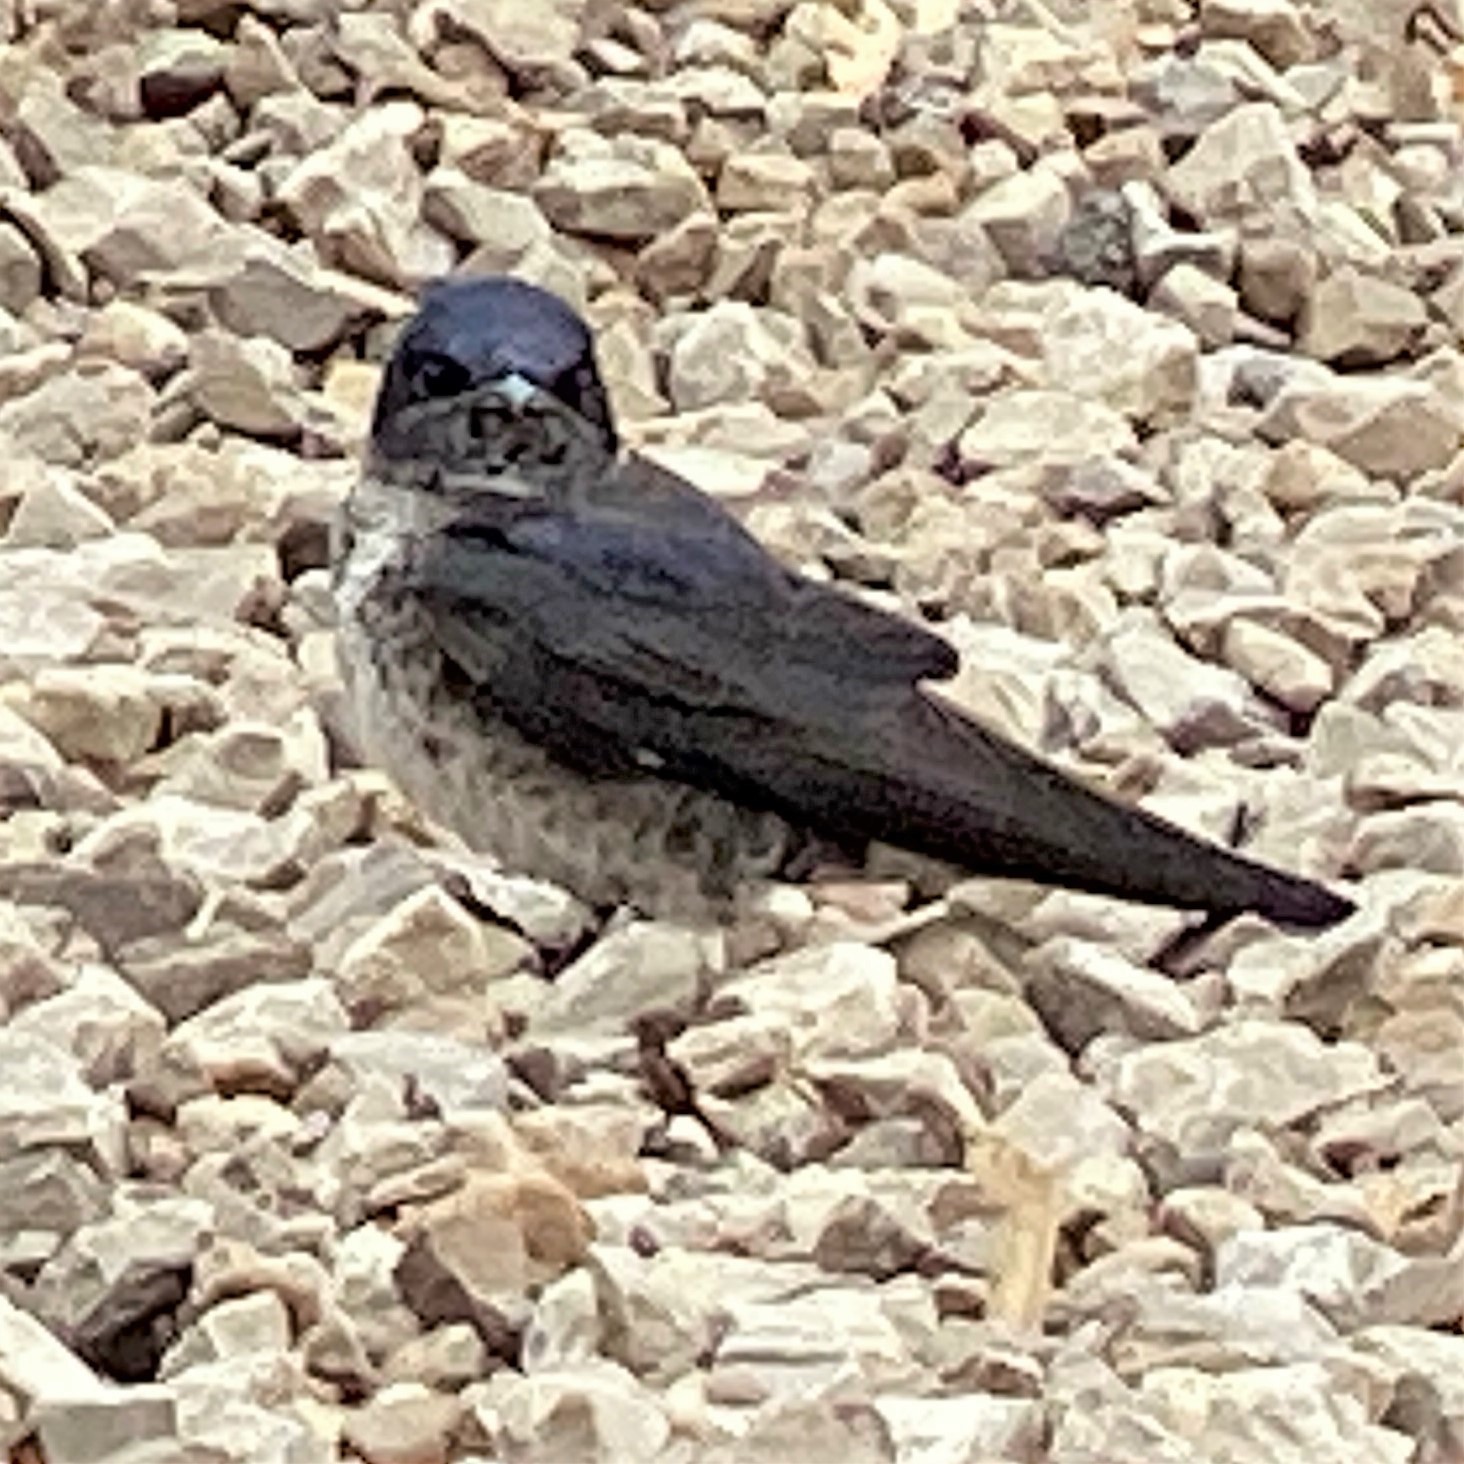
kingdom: Animalia
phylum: Chordata
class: Aves
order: Passeriformes
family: Hirundinidae
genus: Progne
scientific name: Progne subis
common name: Purple martin
